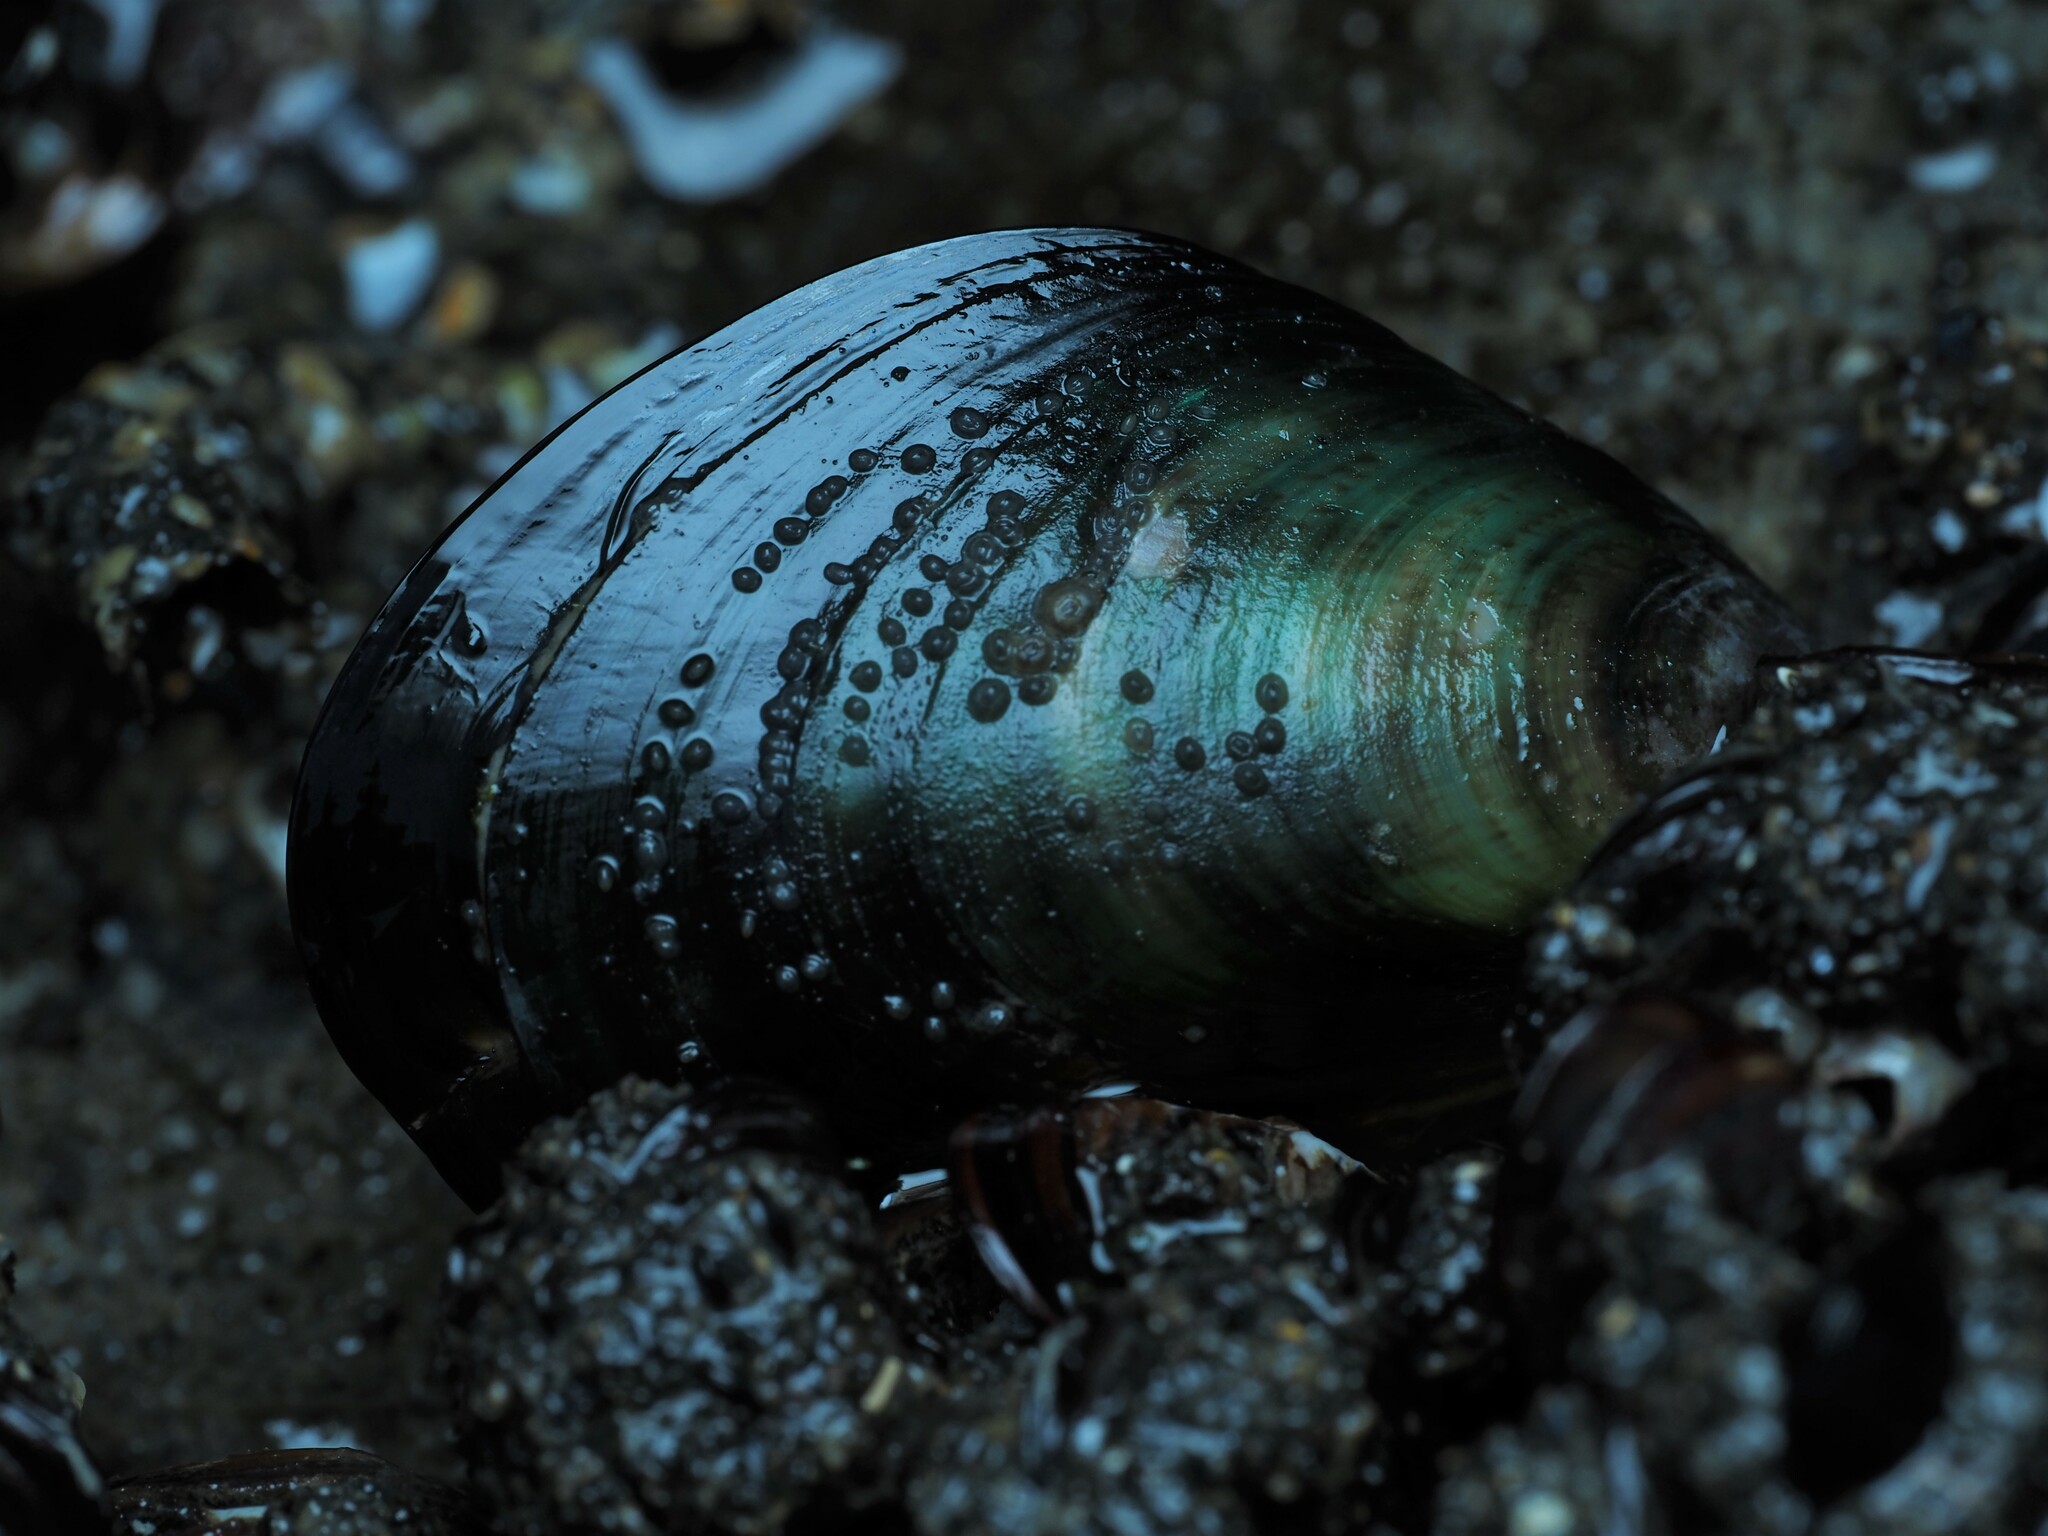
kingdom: Animalia
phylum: Mollusca
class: Bivalvia
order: Mytilida
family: Mytilidae
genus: Perna
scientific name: Perna canaliculus
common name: New zealand greenshelltm
